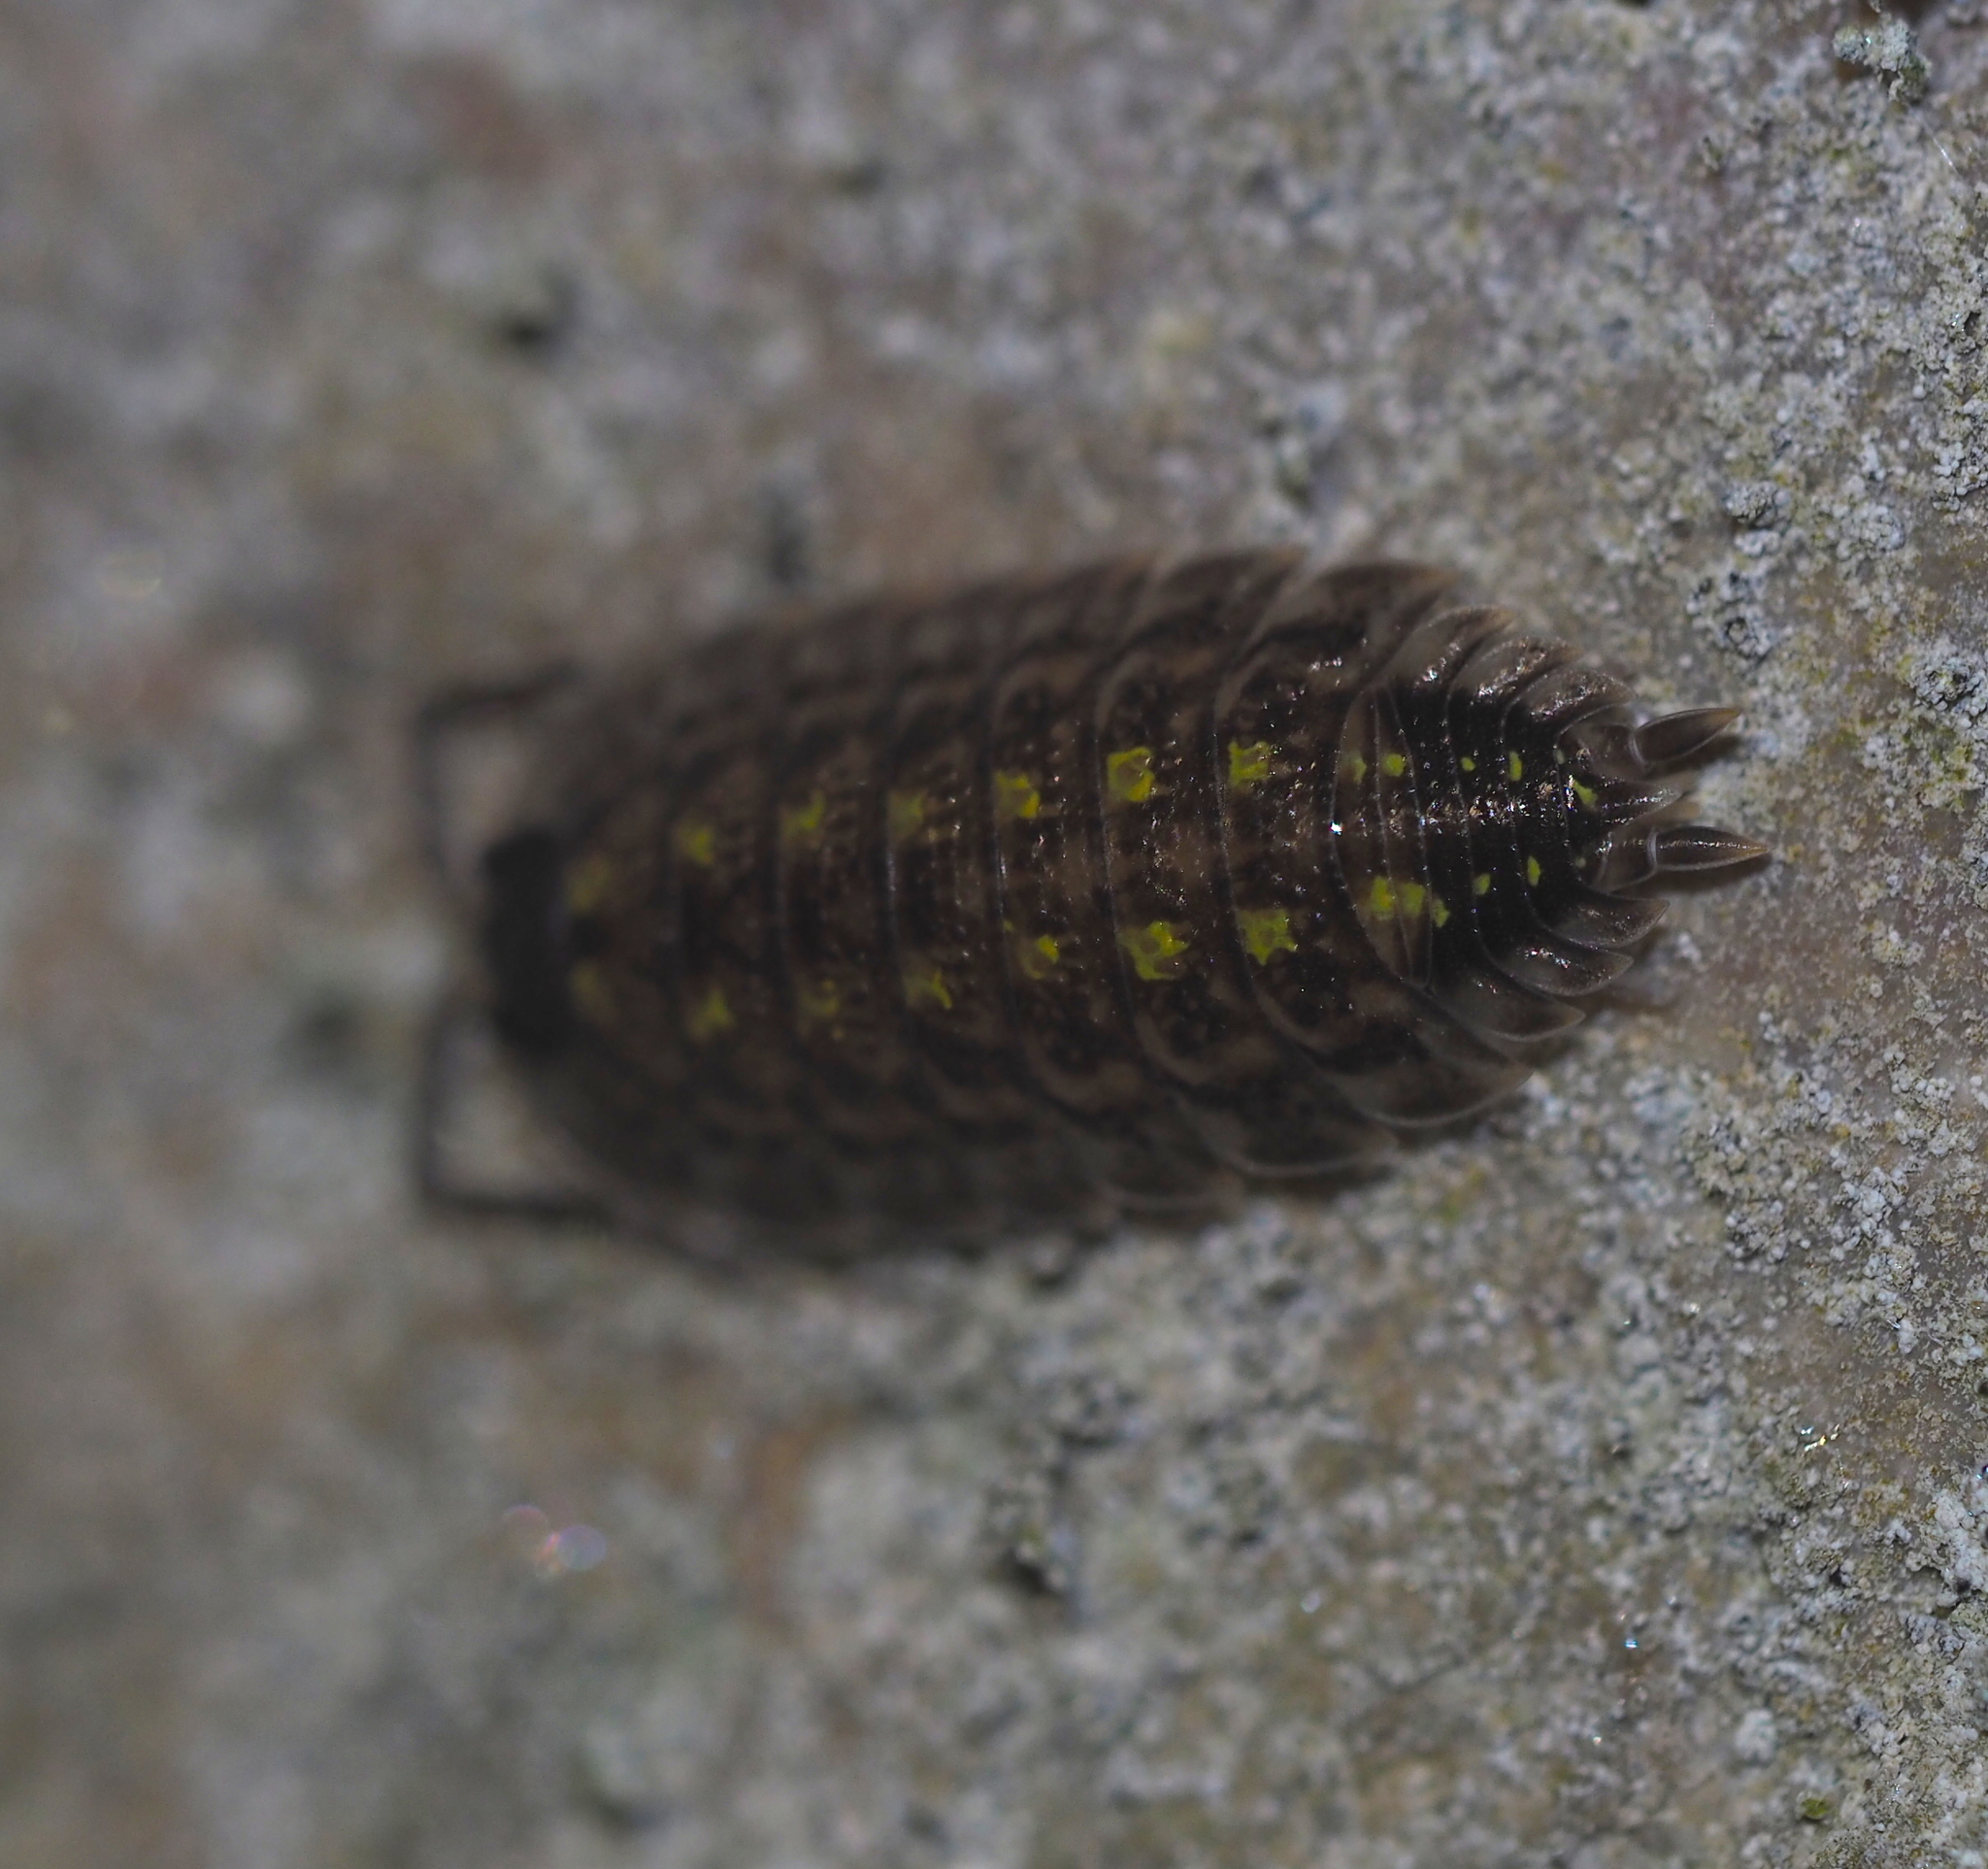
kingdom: Animalia
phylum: Arthropoda
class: Malacostraca
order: Isopoda
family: Porcellionidae
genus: Porcellio
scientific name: Porcellio spinicornis
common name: Painted woodlouse
